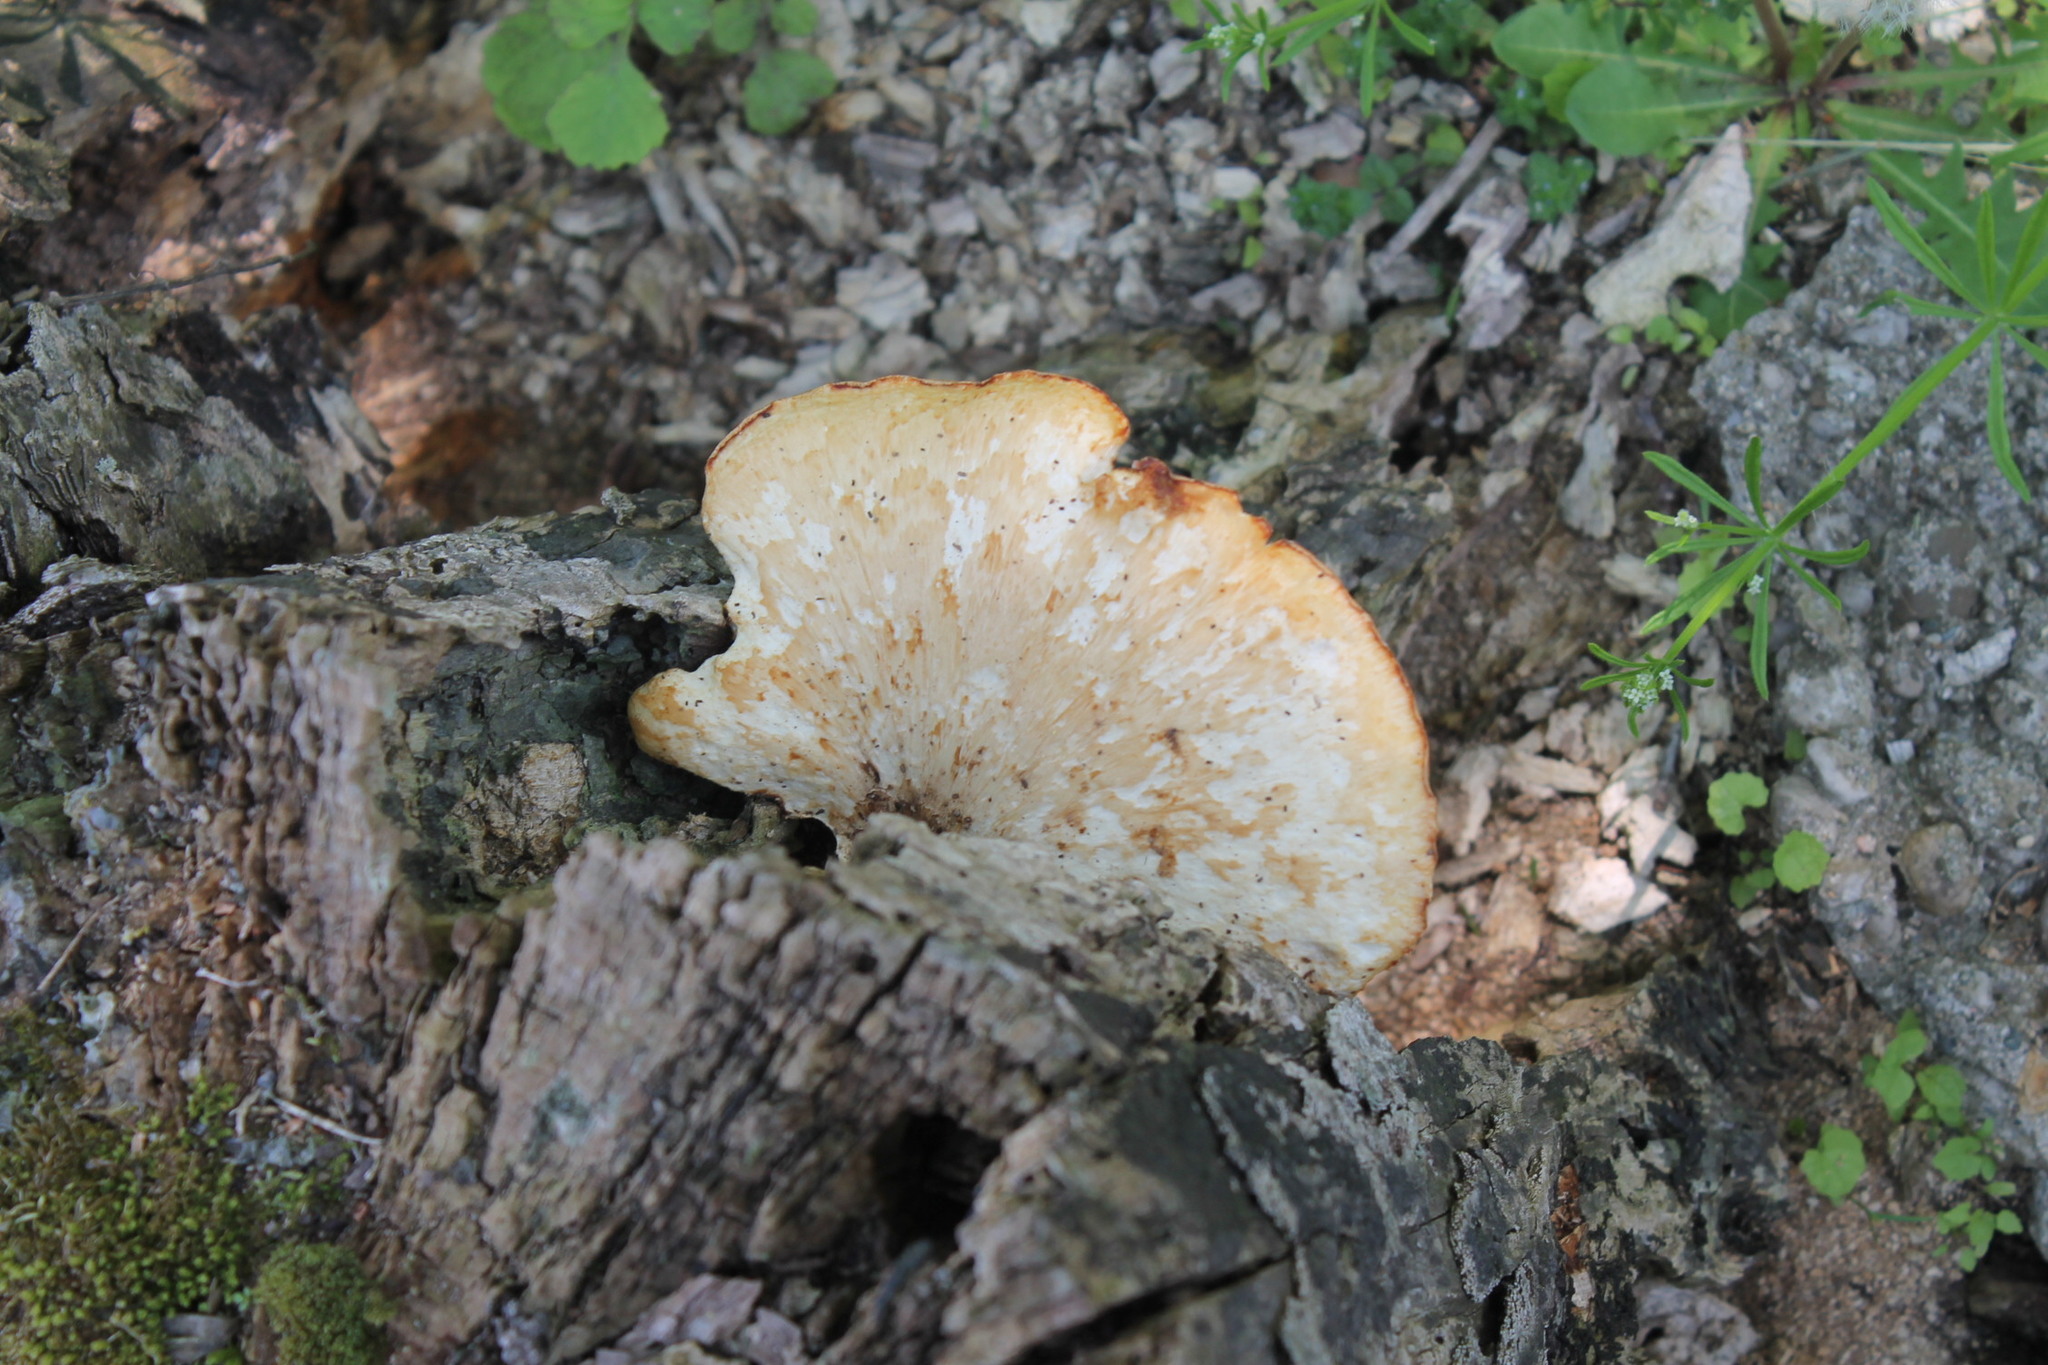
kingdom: Fungi
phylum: Basidiomycota
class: Agaricomycetes
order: Polyporales
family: Polyporaceae
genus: Cerioporus
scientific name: Cerioporus squamosus
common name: Dryad's saddle
